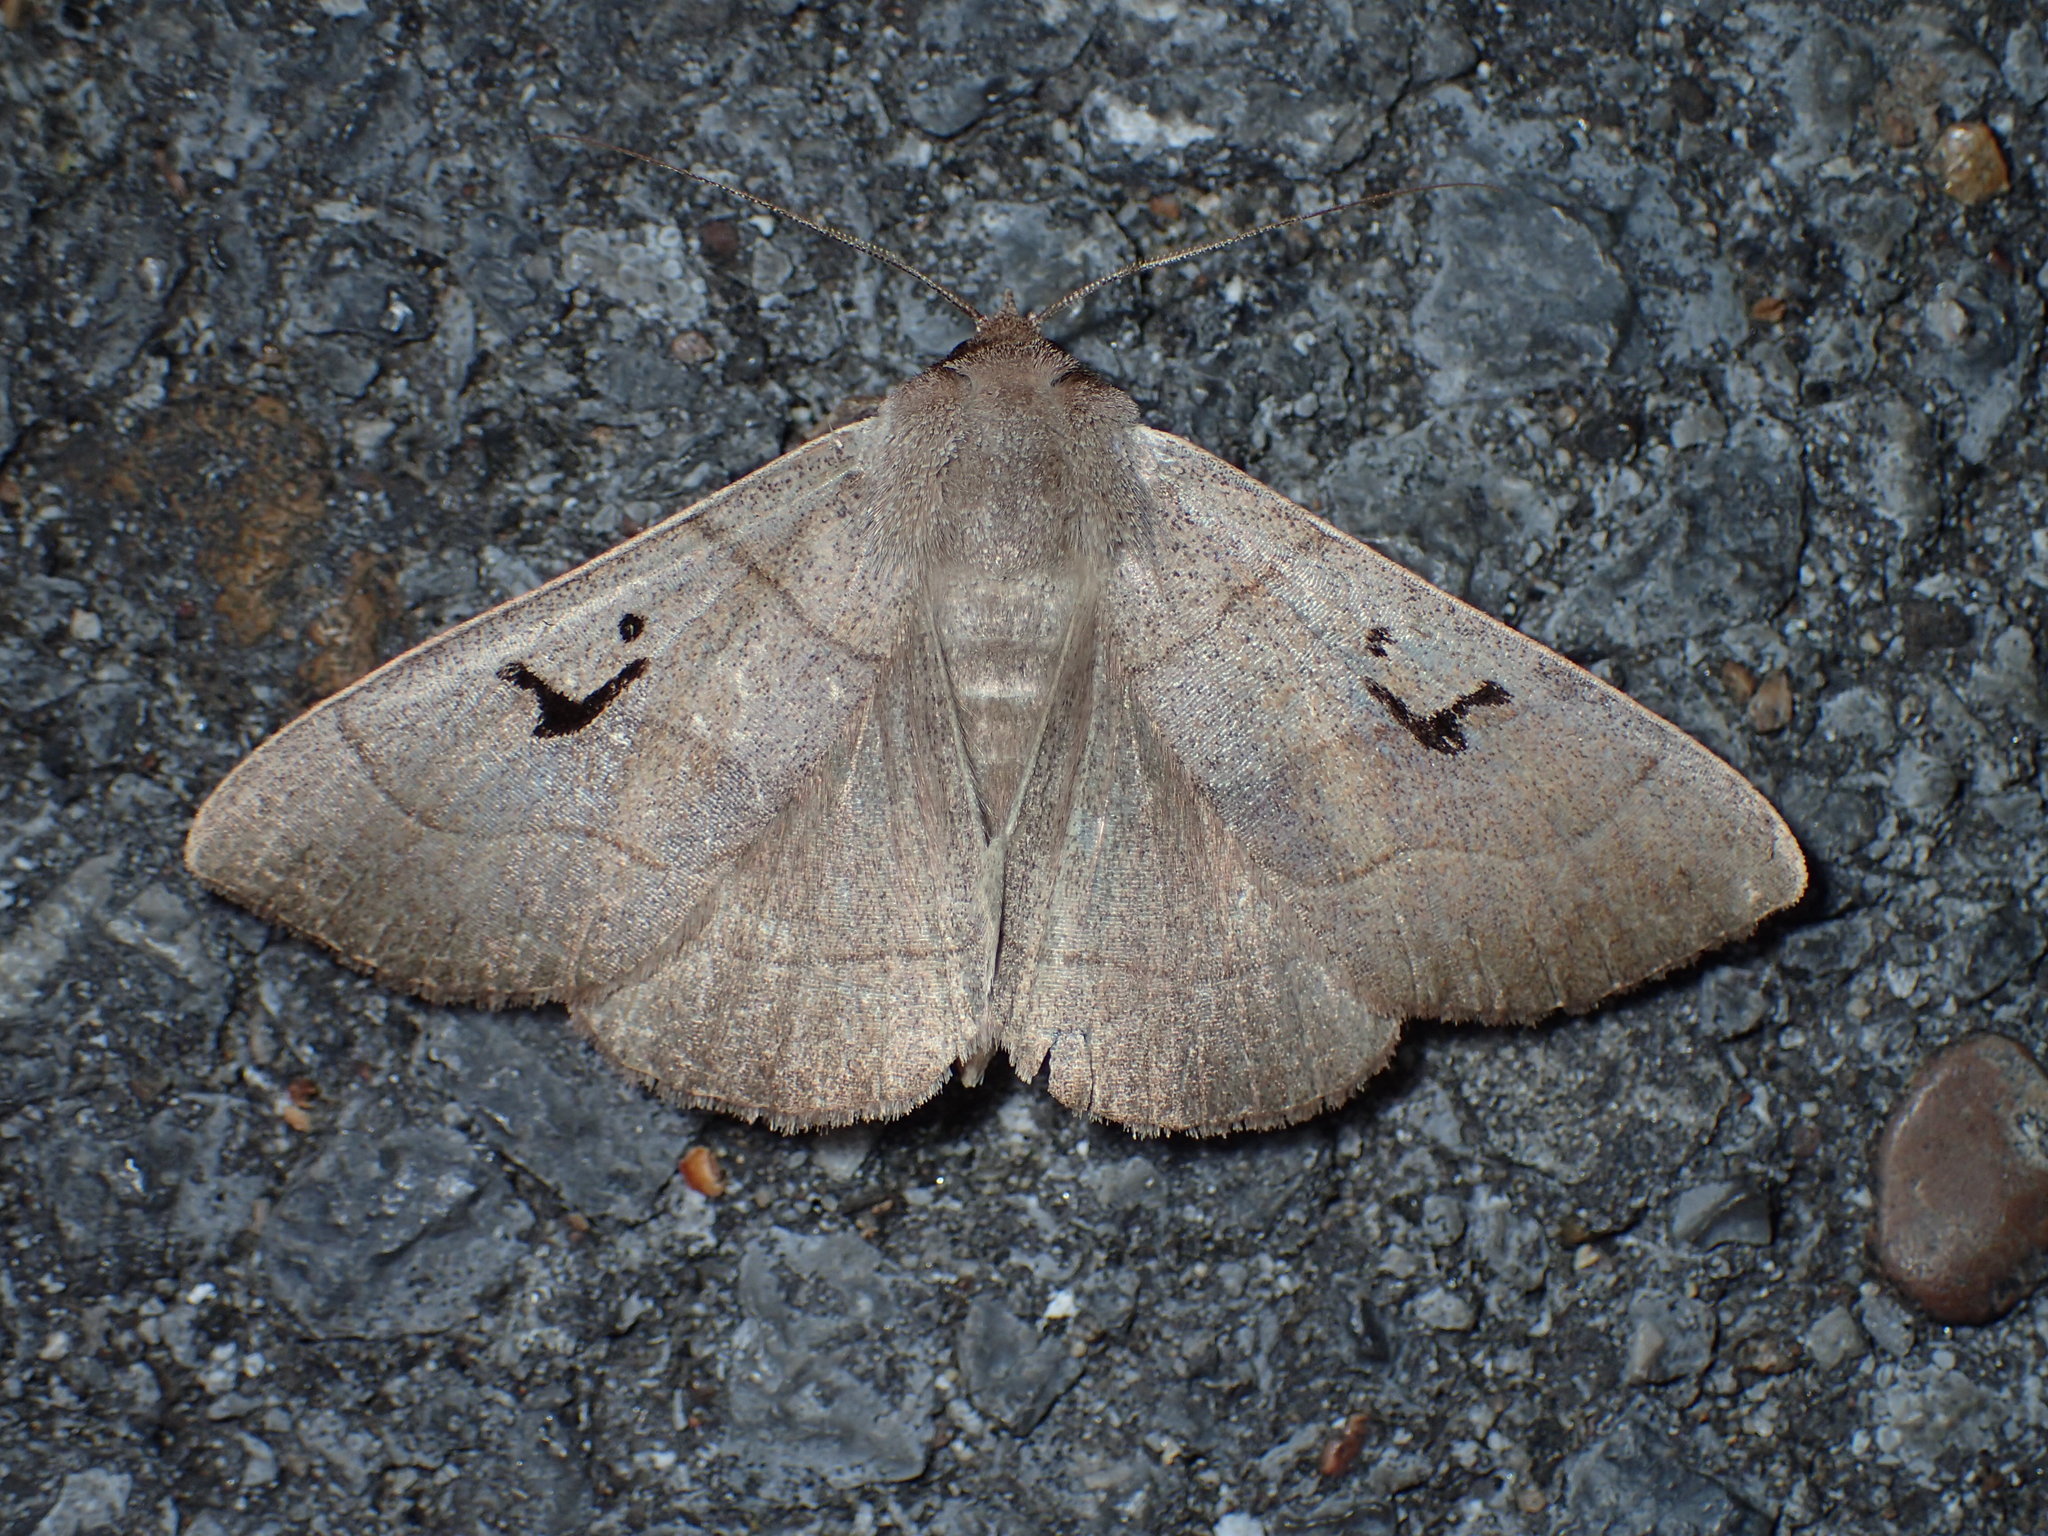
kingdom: Animalia
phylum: Arthropoda
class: Insecta
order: Lepidoptera
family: Erebidae
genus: Panopoda
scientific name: Panopoda carneicosta
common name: Brown panopoda moth
